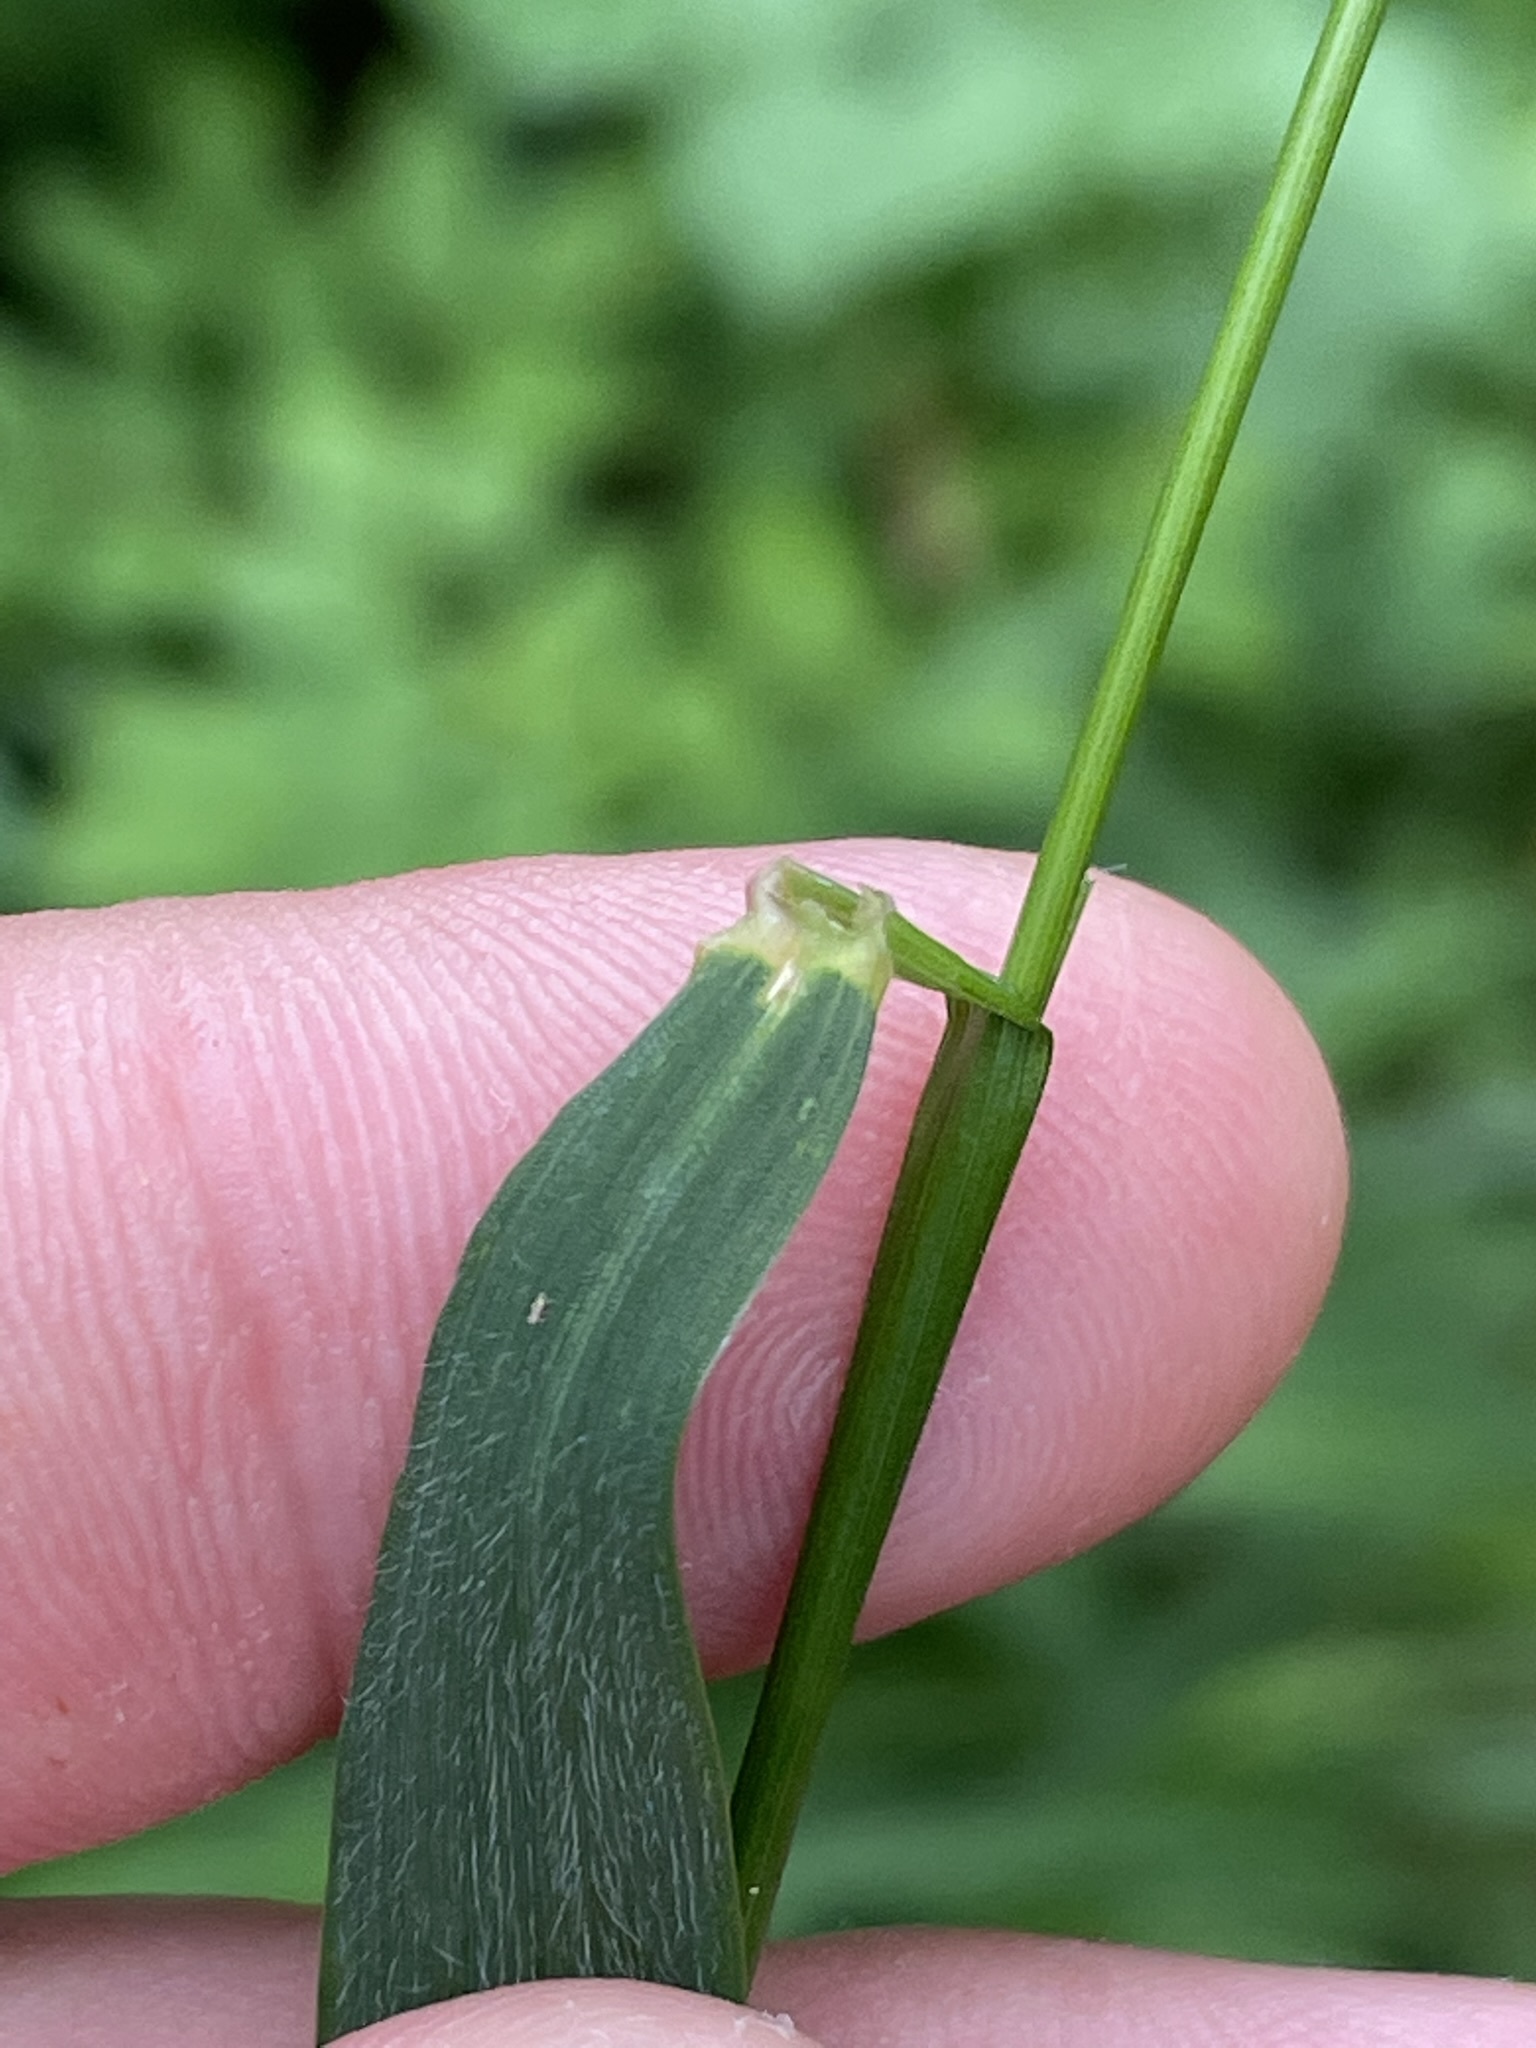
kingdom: Plantae
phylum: Tracheophyta
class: Liliopsida
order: Poales
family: Poaceae
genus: Elymus
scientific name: Elymus caninus
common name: Bearded couch
